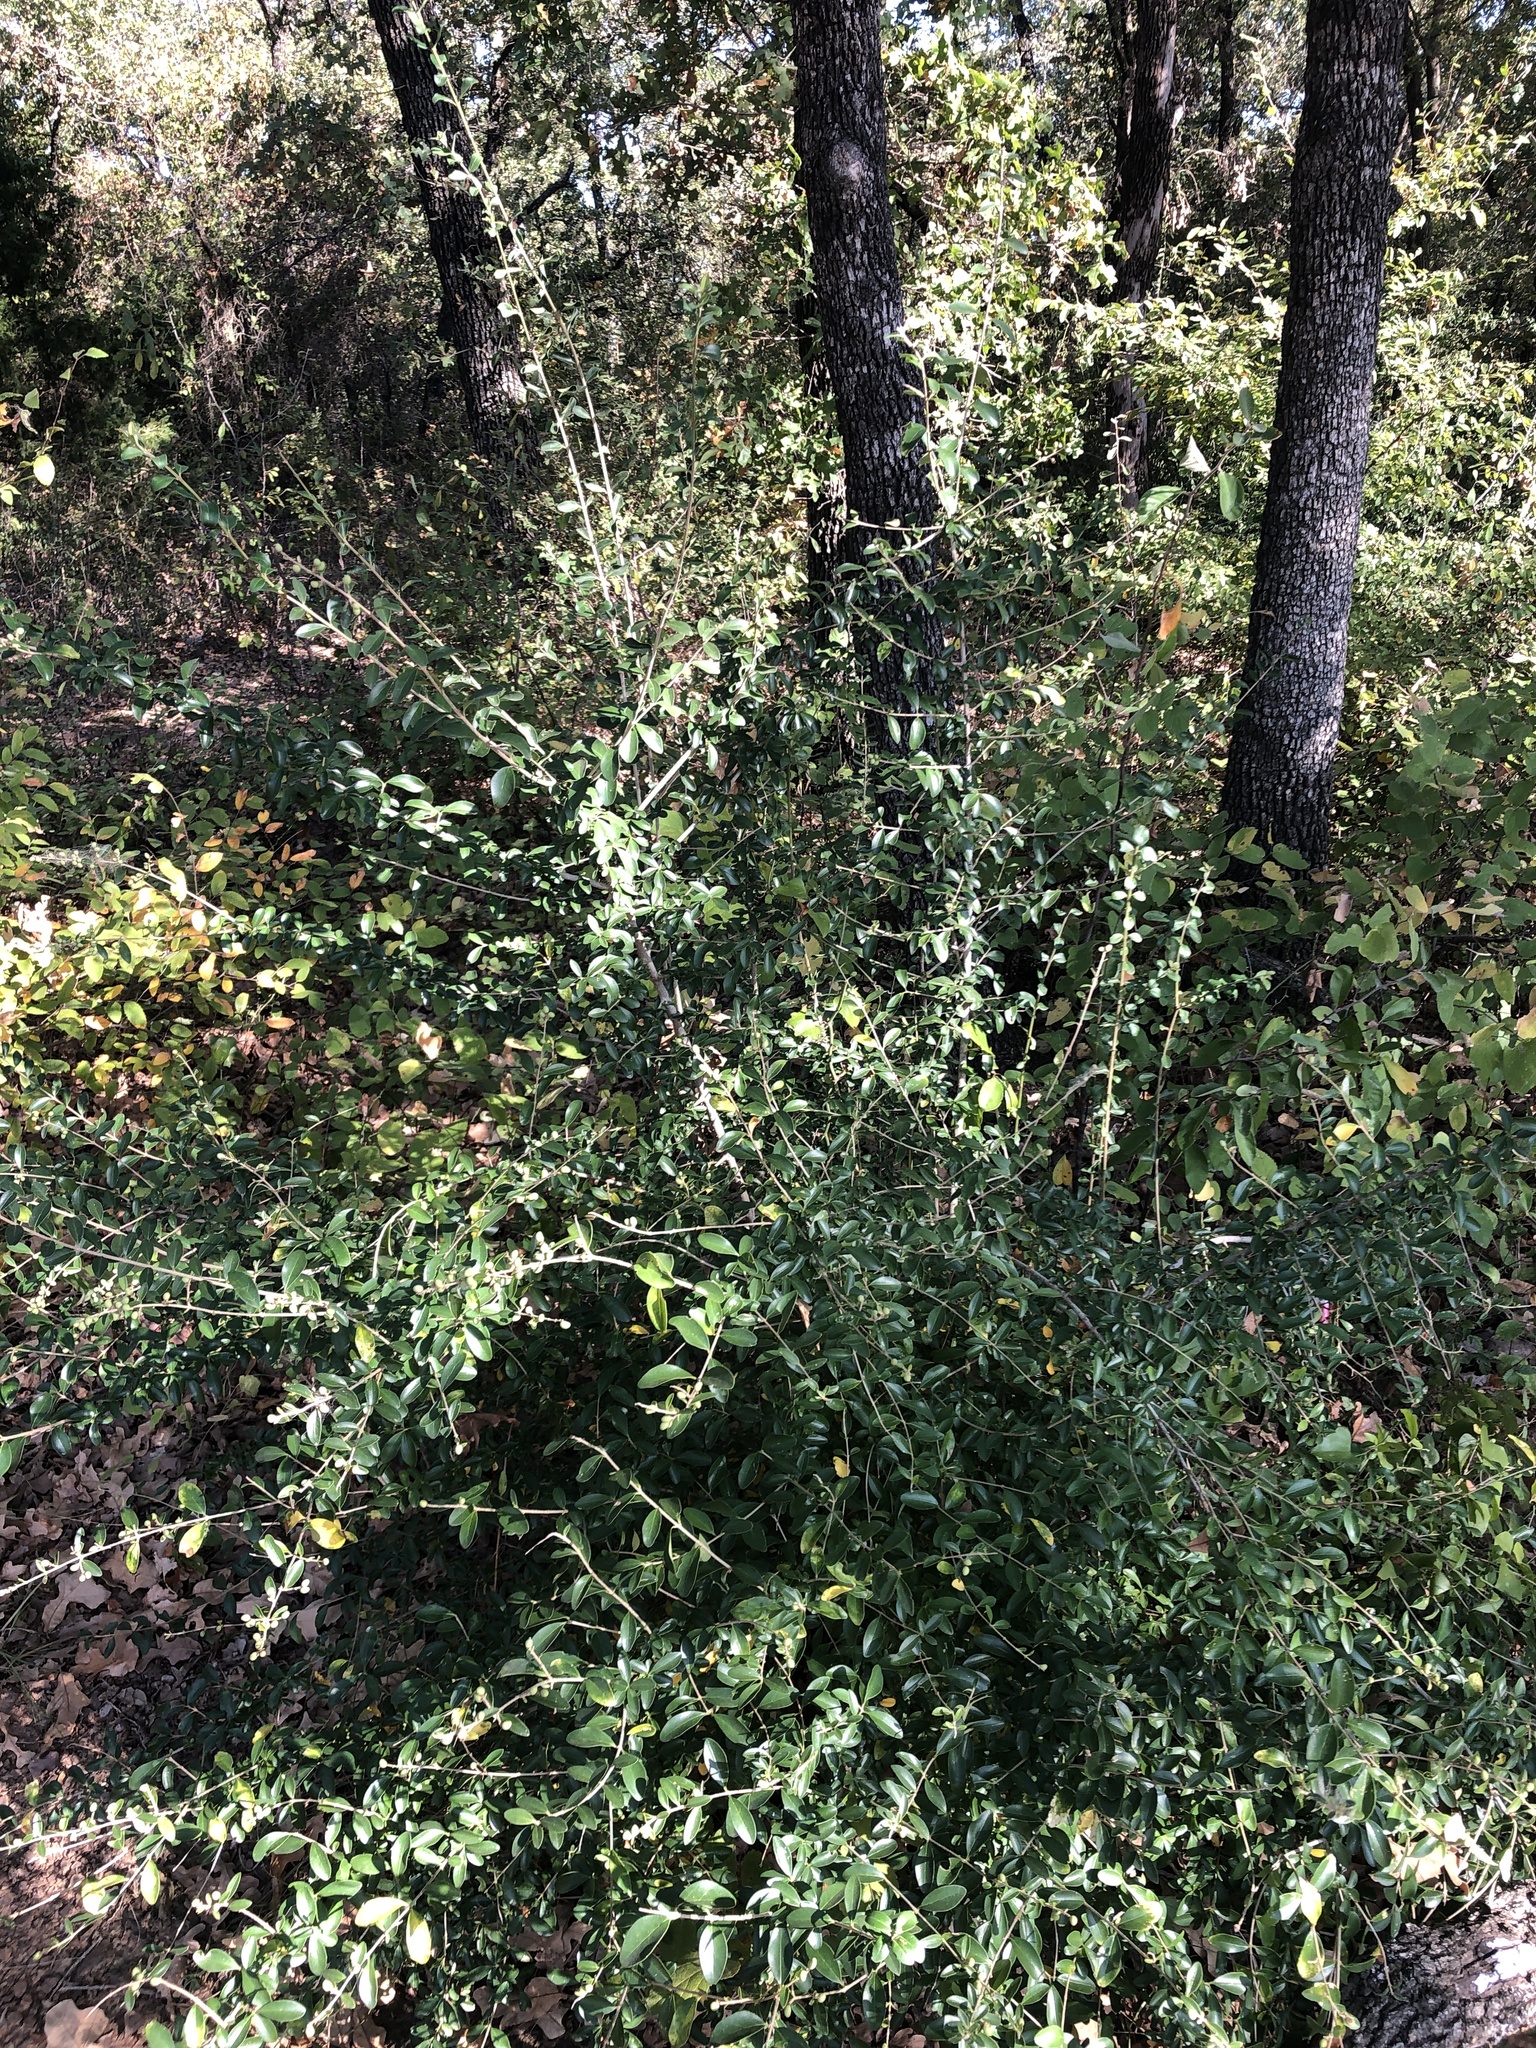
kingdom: Plantae
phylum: Tracheophyta
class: Magnoliopsida
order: Lamiales
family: Oleaceae
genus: Ligustrum
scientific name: Ligustrum quihoui
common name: Waxyleaf privet
